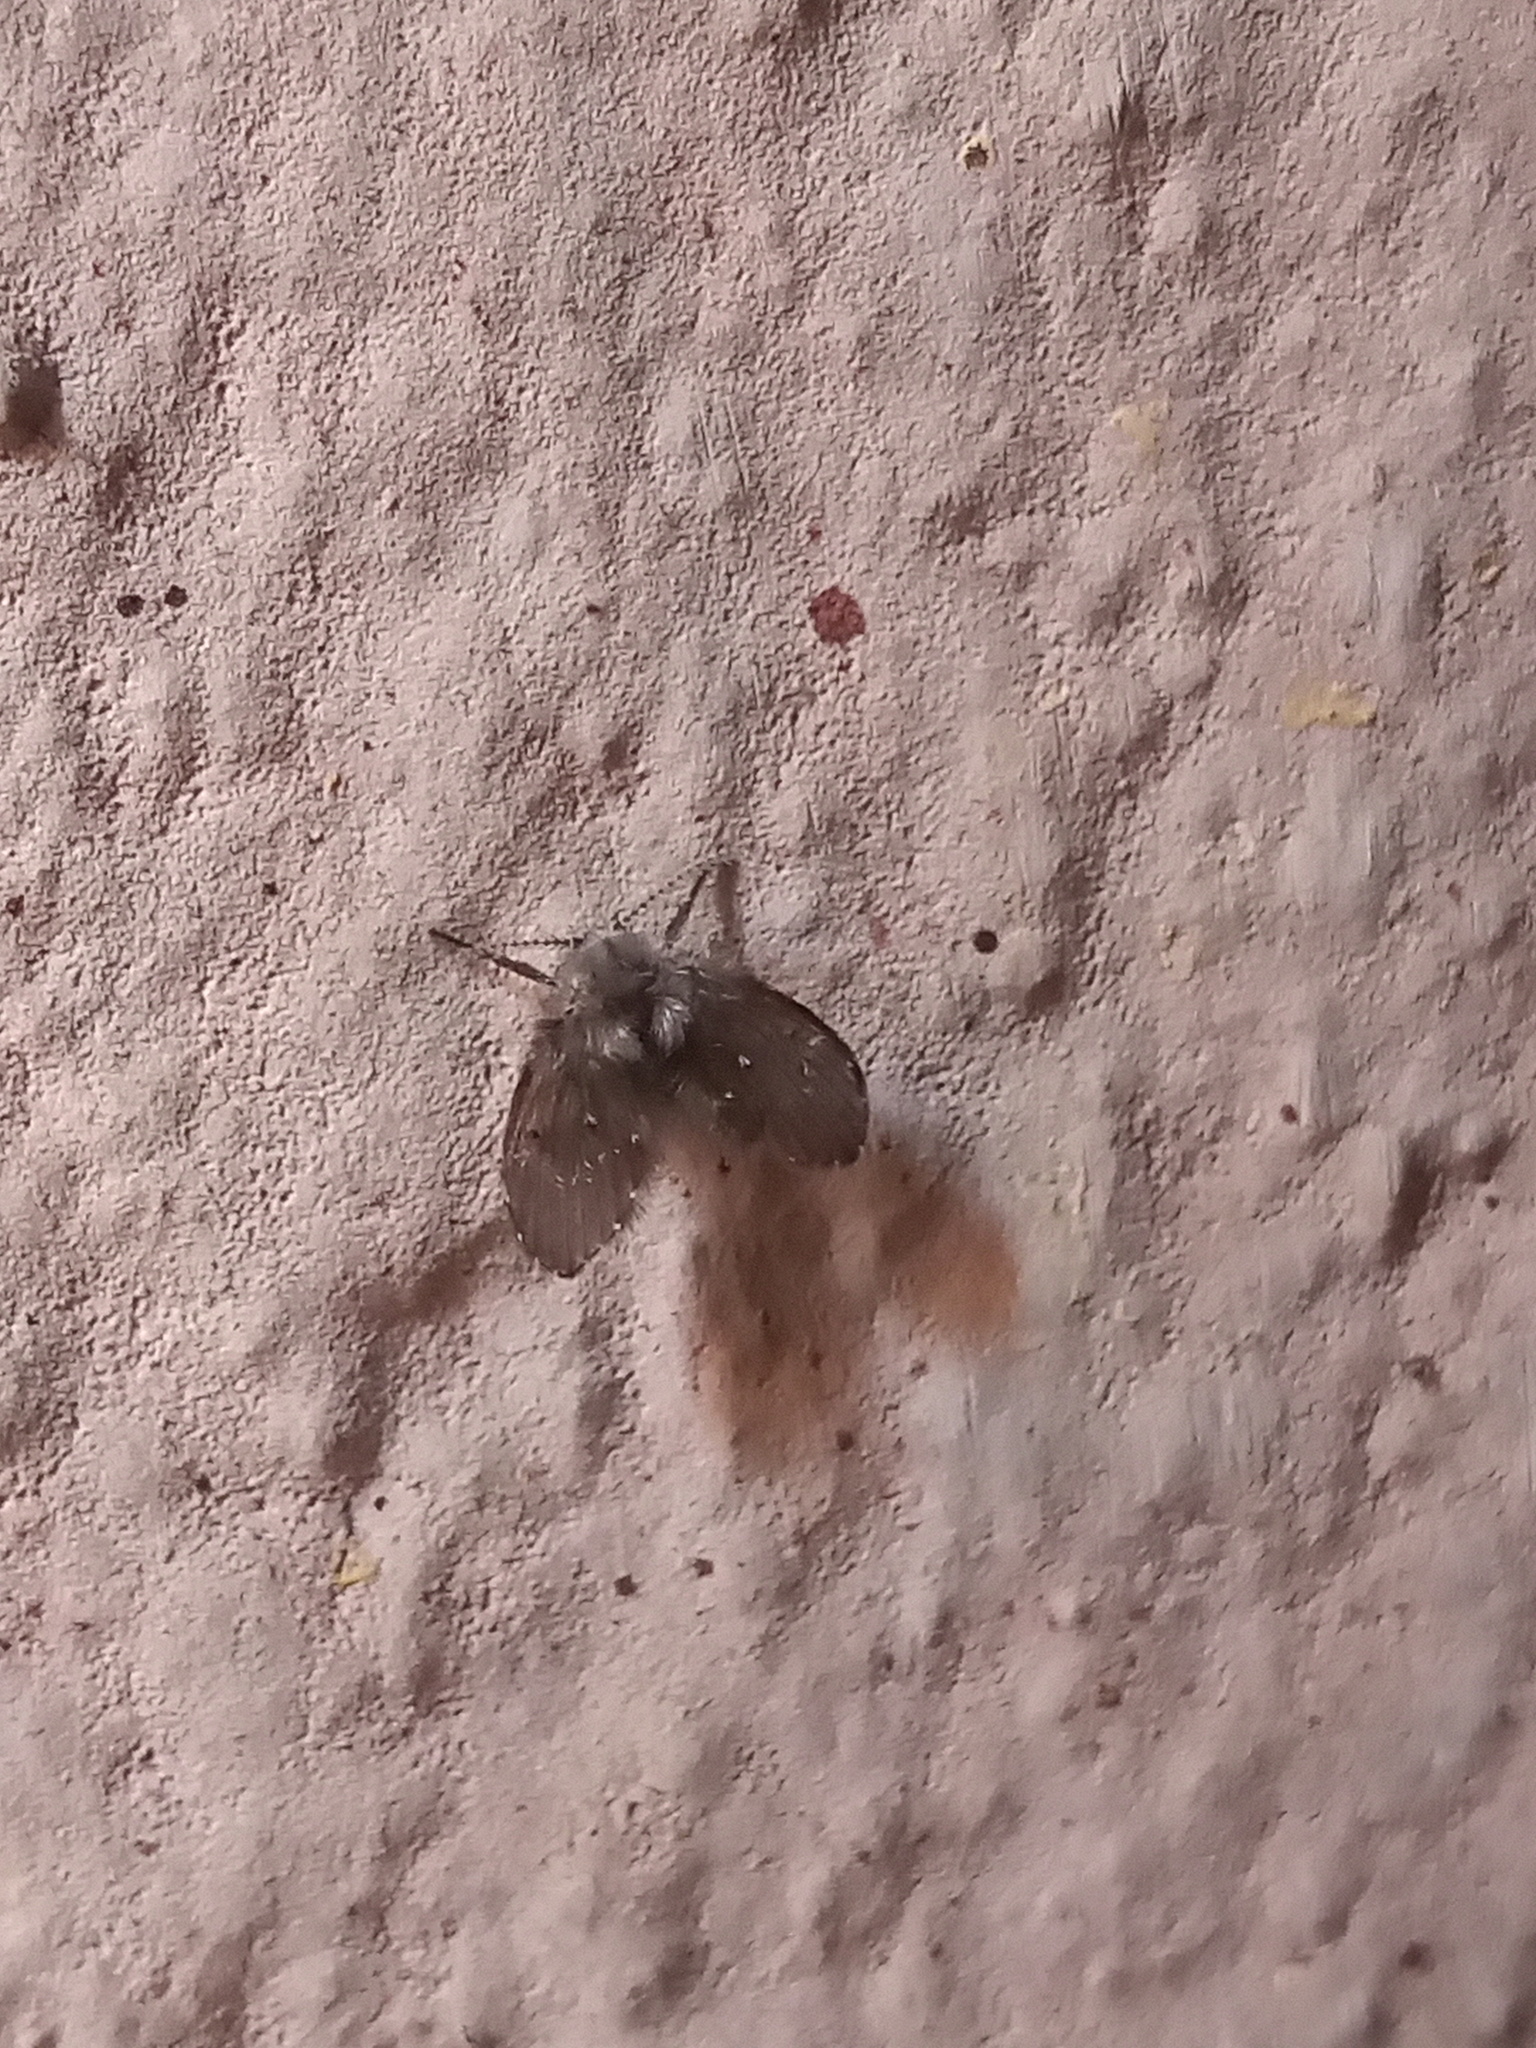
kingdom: Animalia
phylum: Arthropoda
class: Insecta
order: Diptera
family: Psychodidae
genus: Clogmia
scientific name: Clogmia albipunctatus
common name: White-spotted moth fly
